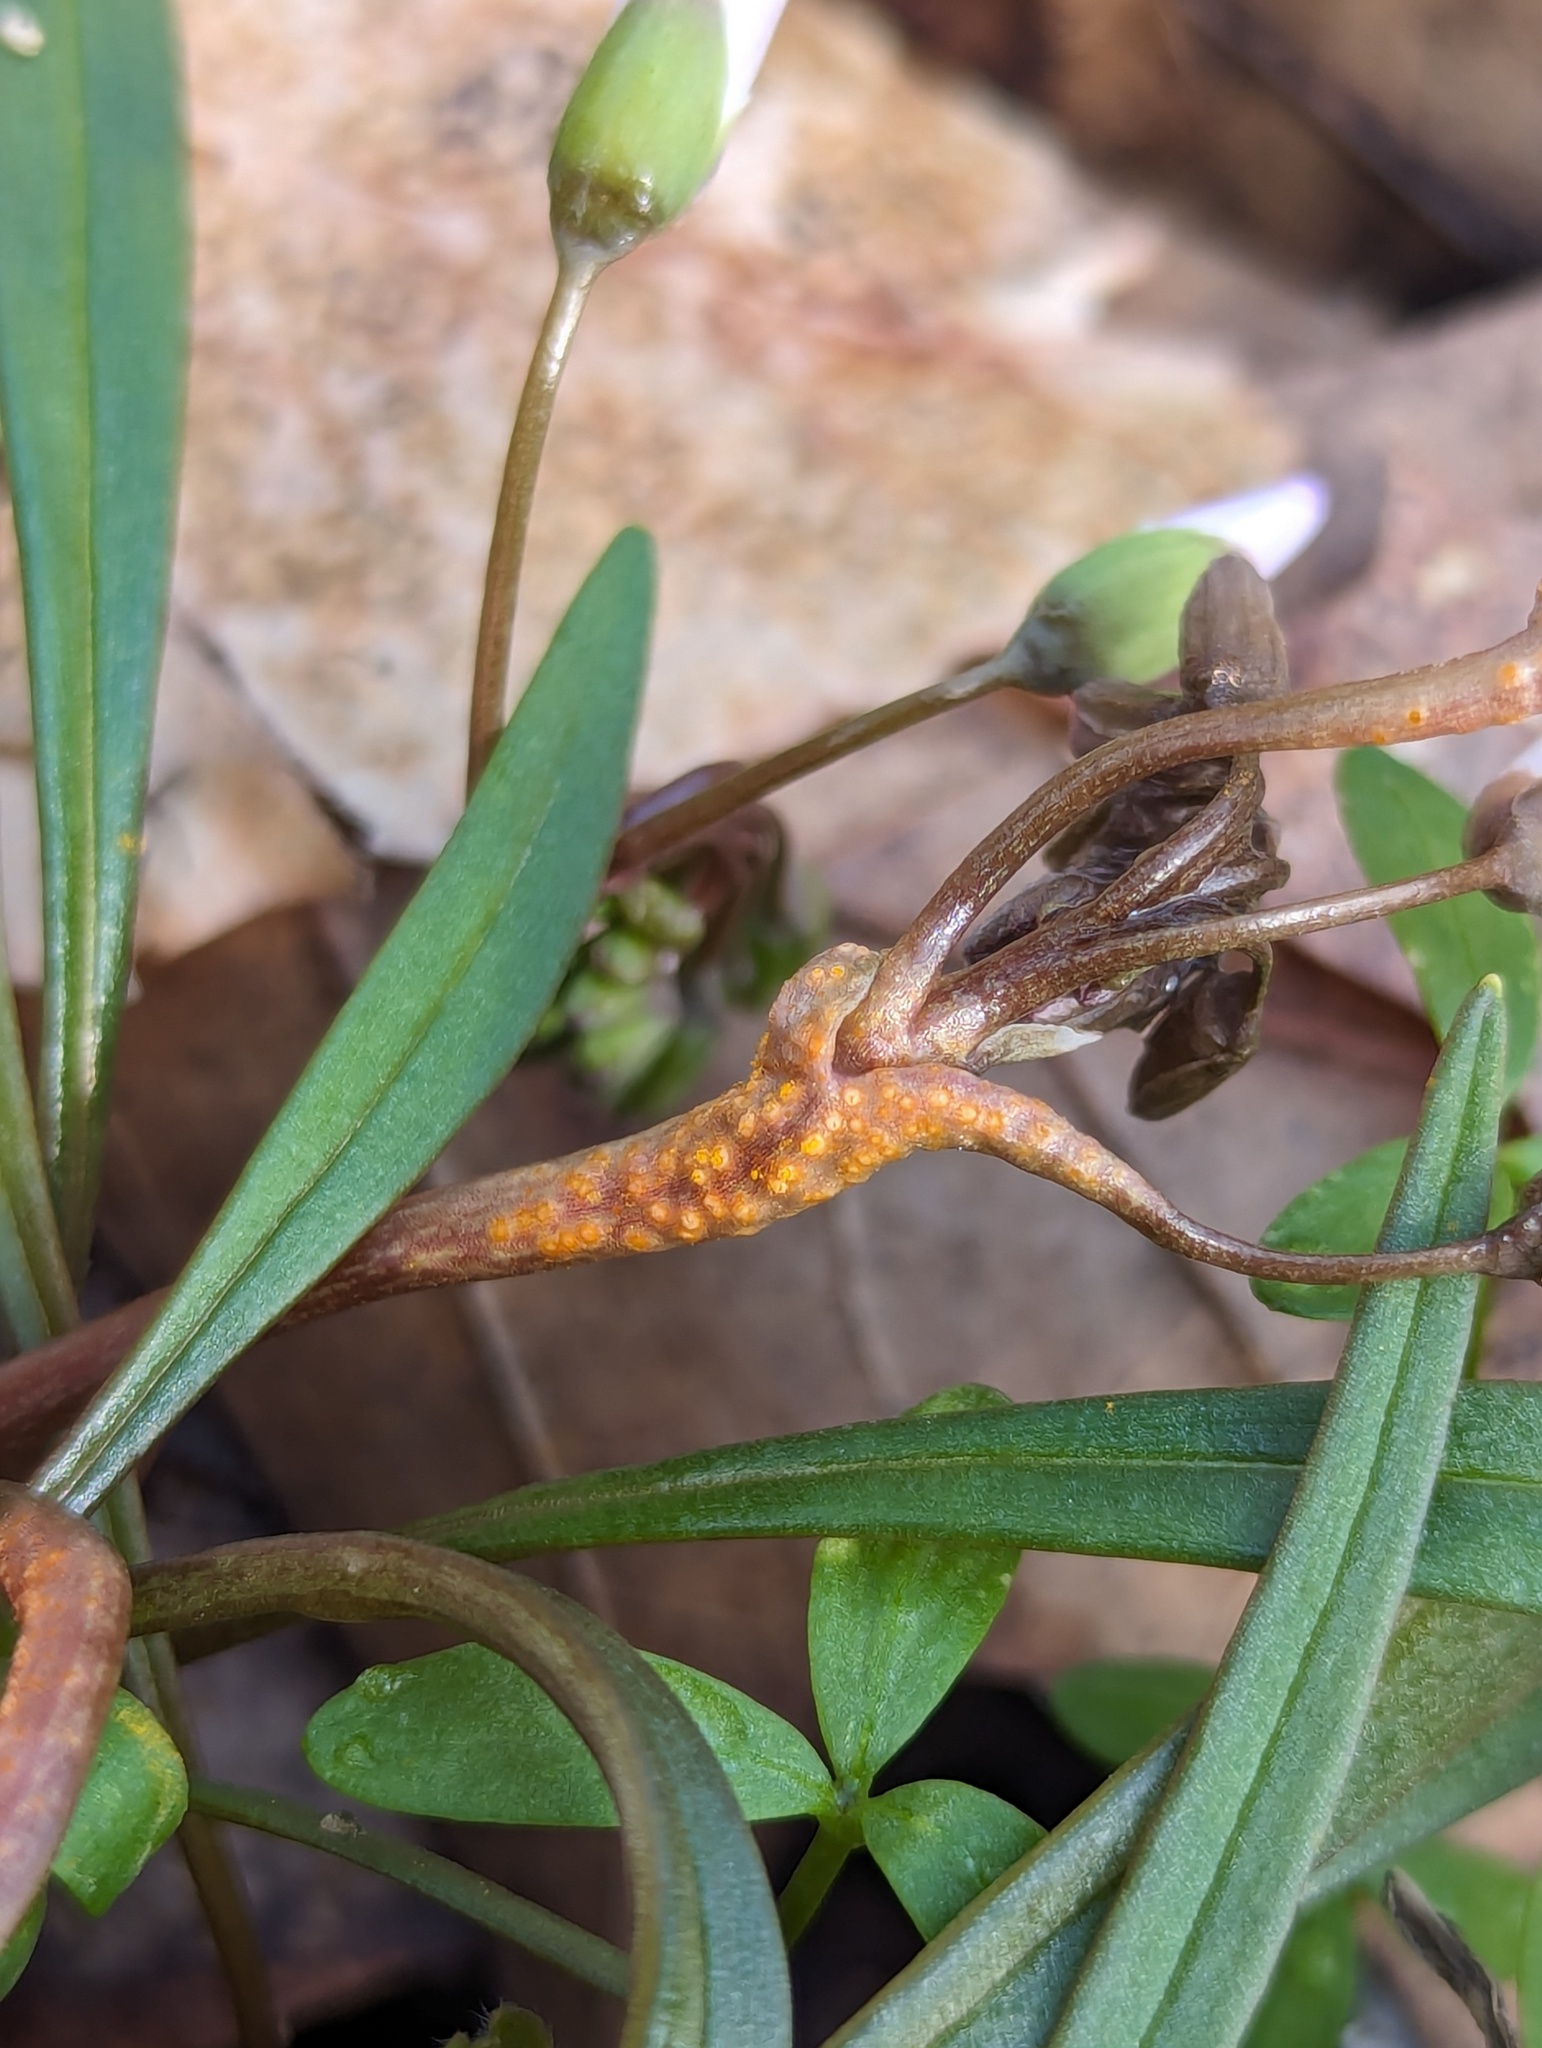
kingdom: Fungi
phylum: Basidiomycota
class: Pucciniomycetes
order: Pucciniales
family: Pucciniaceae
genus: Puccinia
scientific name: Puccinia mariae-wilsoniae
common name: Spring beauty rust
